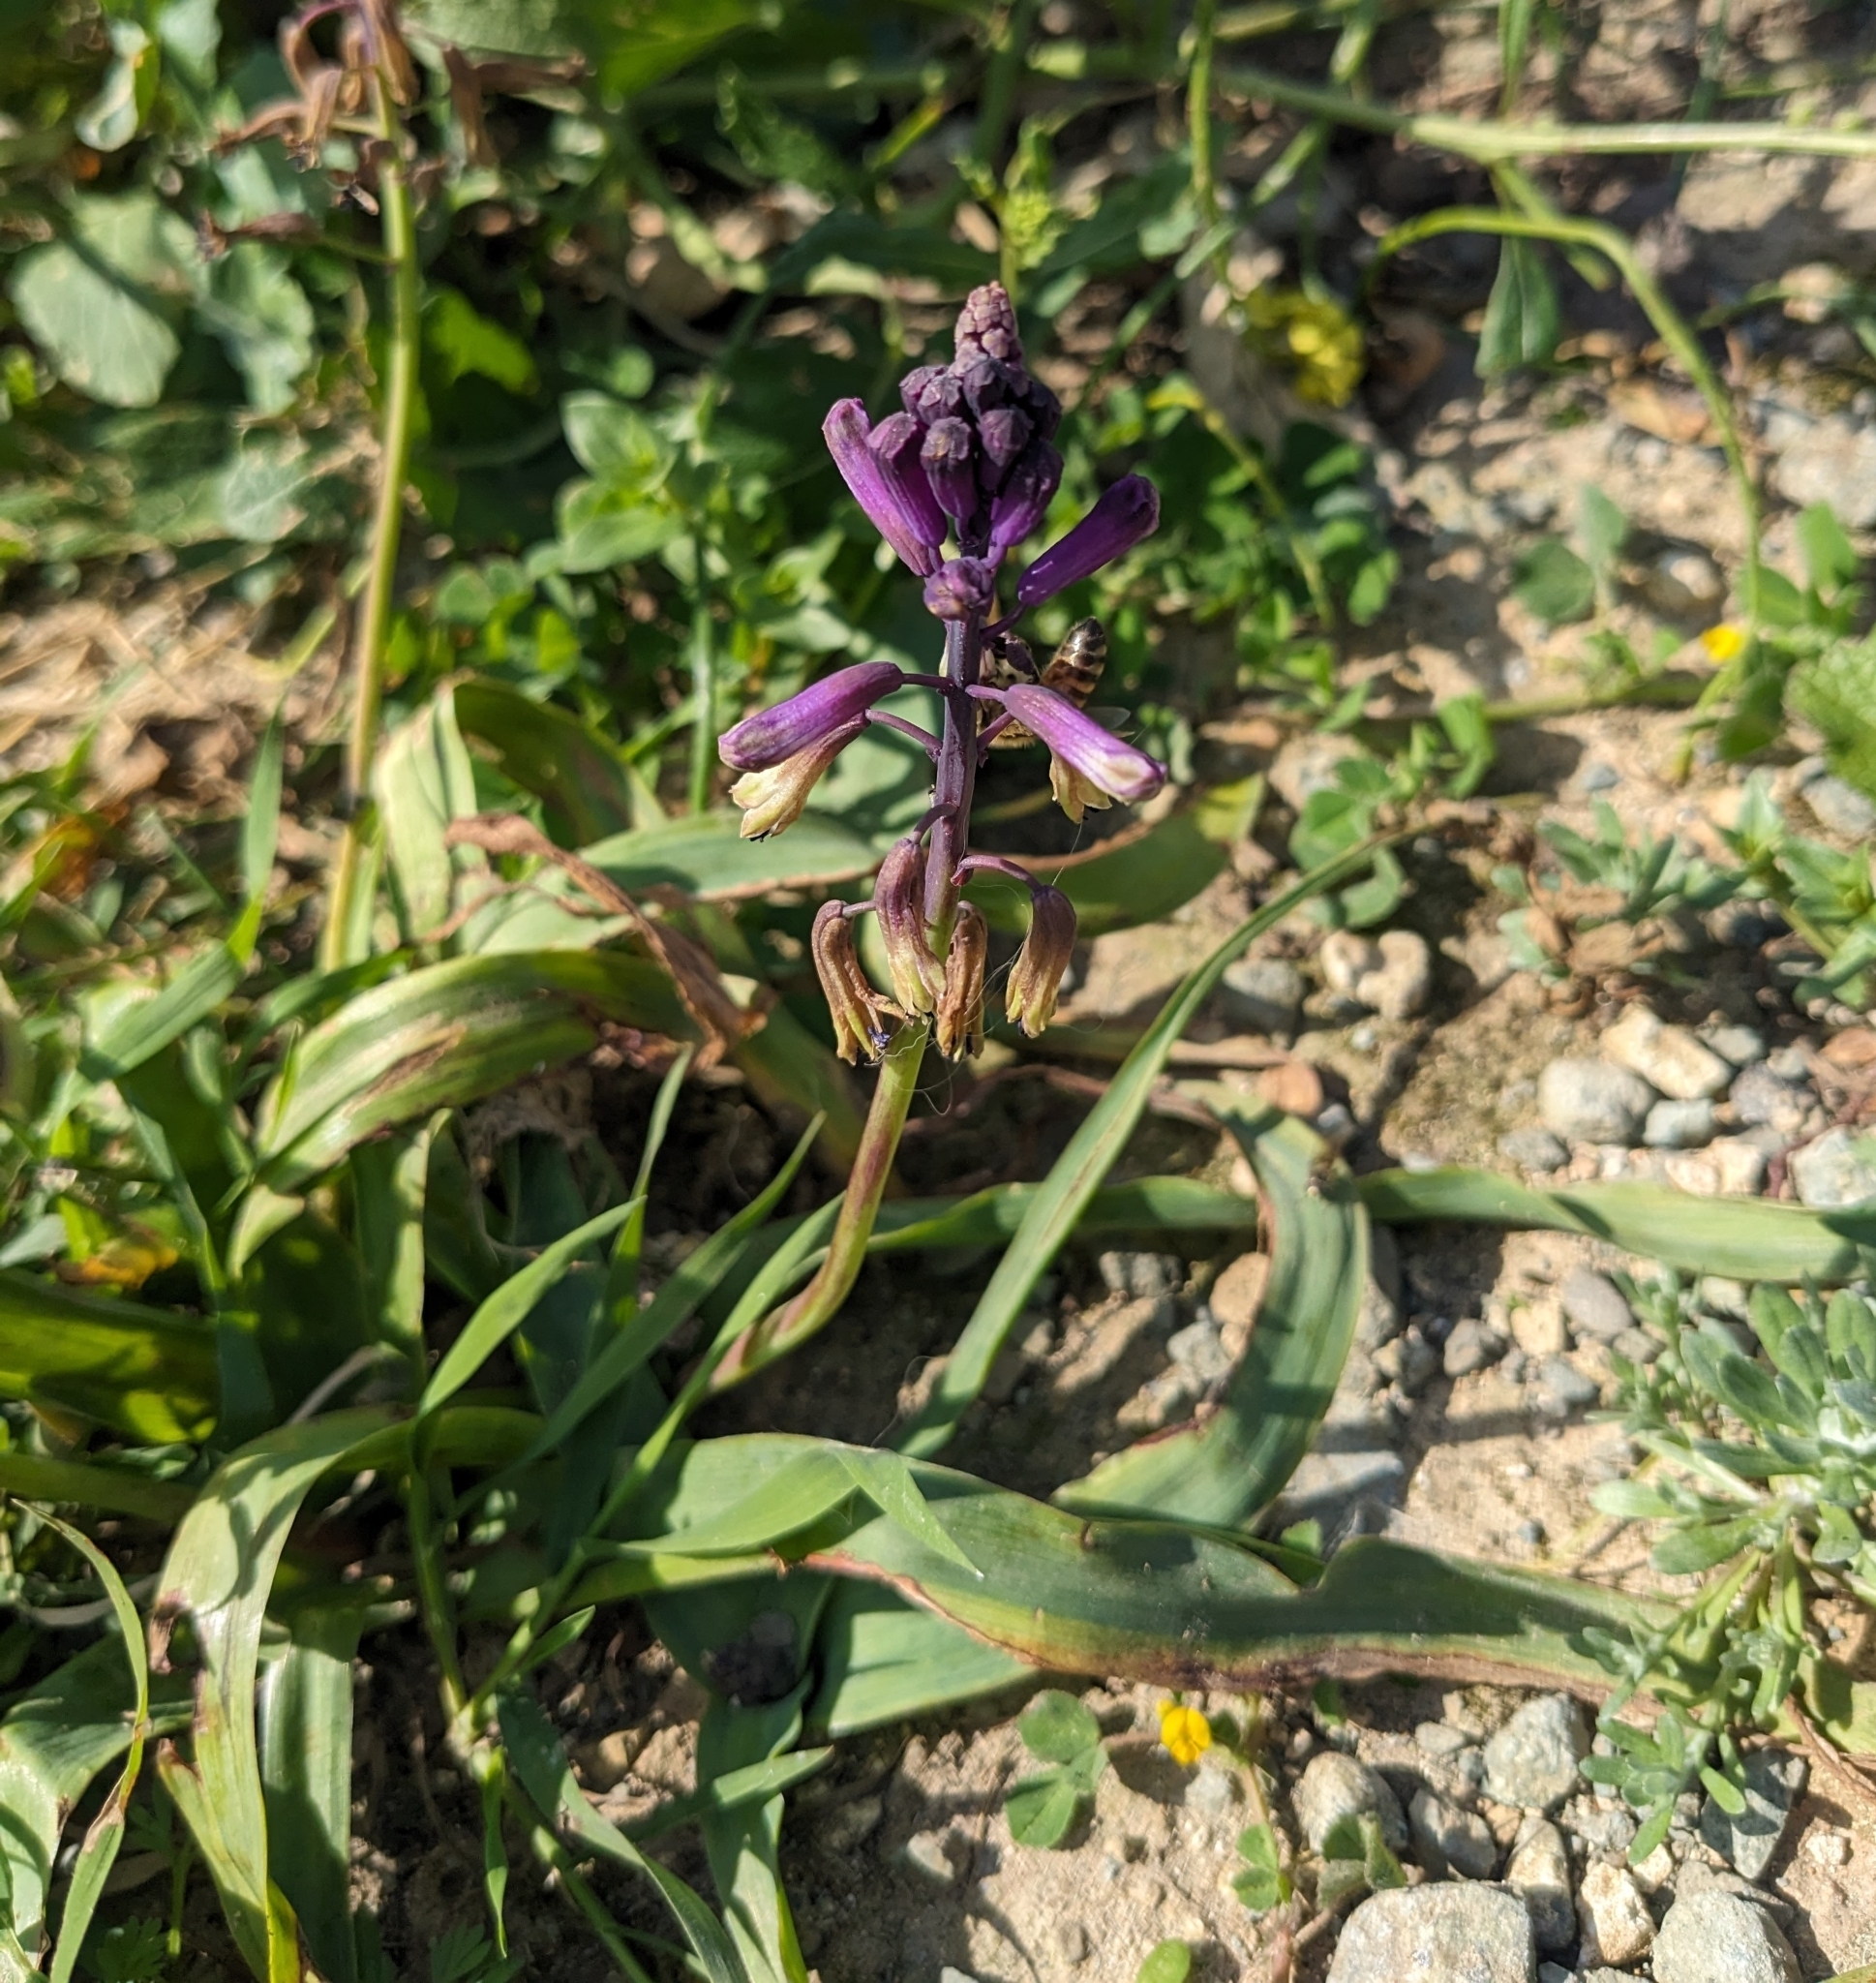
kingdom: Plantae
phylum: Tracheophyta
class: Liliopsida
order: Asparagales
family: Asparagaceae
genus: Bellevalia
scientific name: Bellevalia trifoliata
